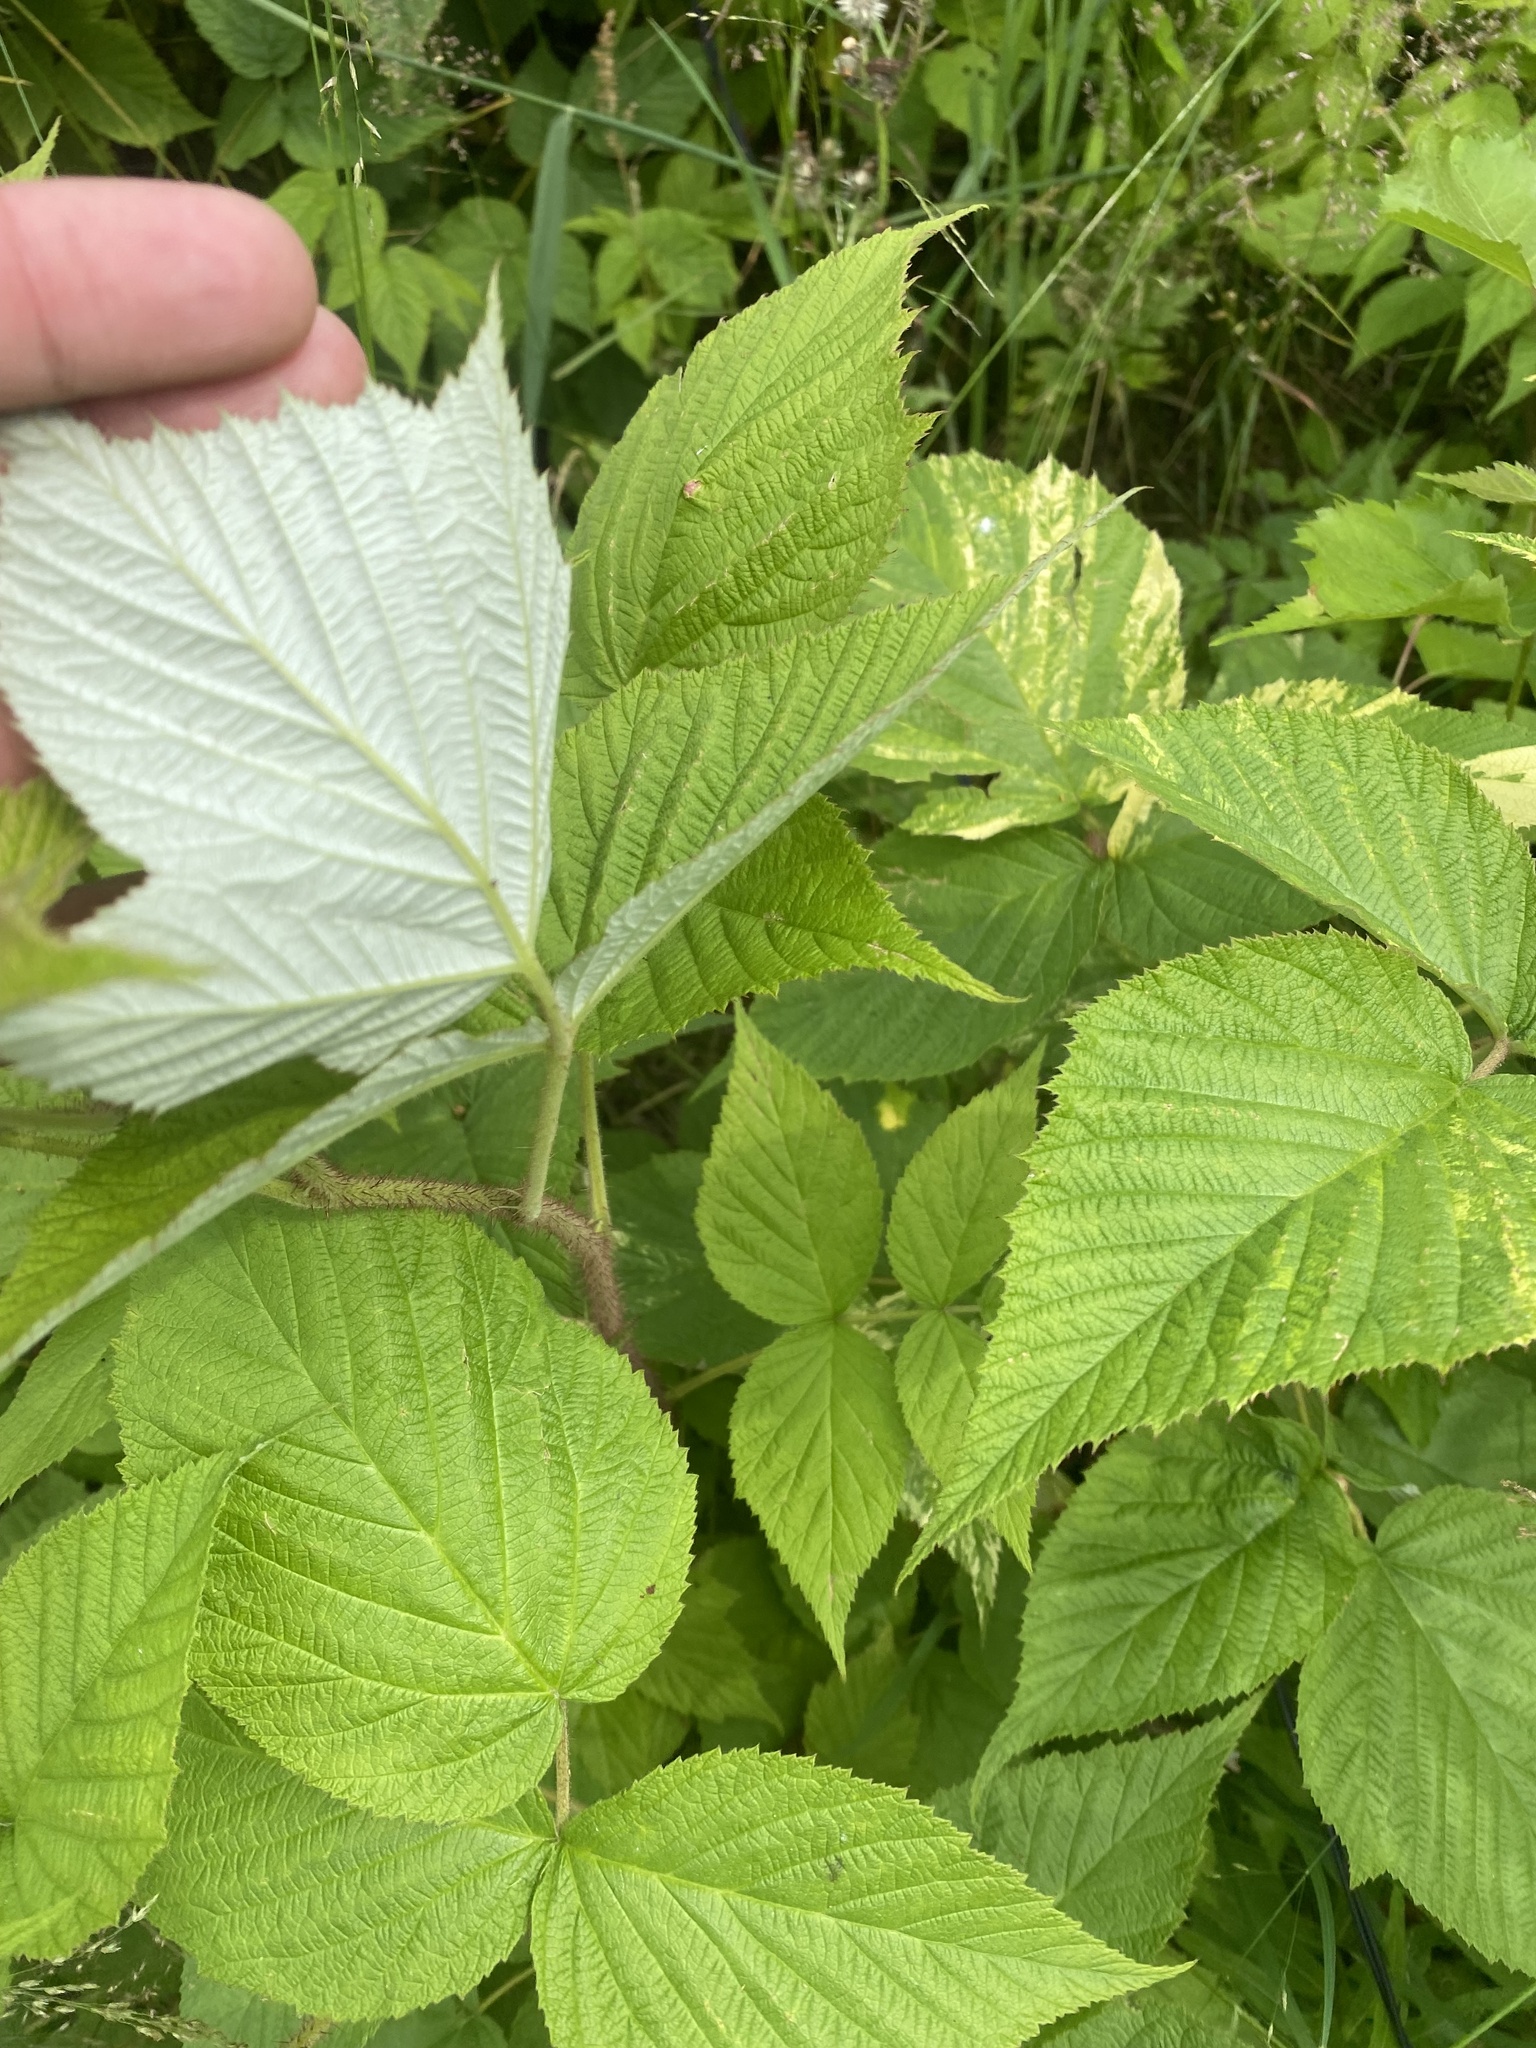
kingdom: Plantae
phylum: Tracheophyta
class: Magnoliopsida
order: Rosales
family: Rosaceae
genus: Rubus
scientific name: Rubus sachalinensis
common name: Red raspberry
